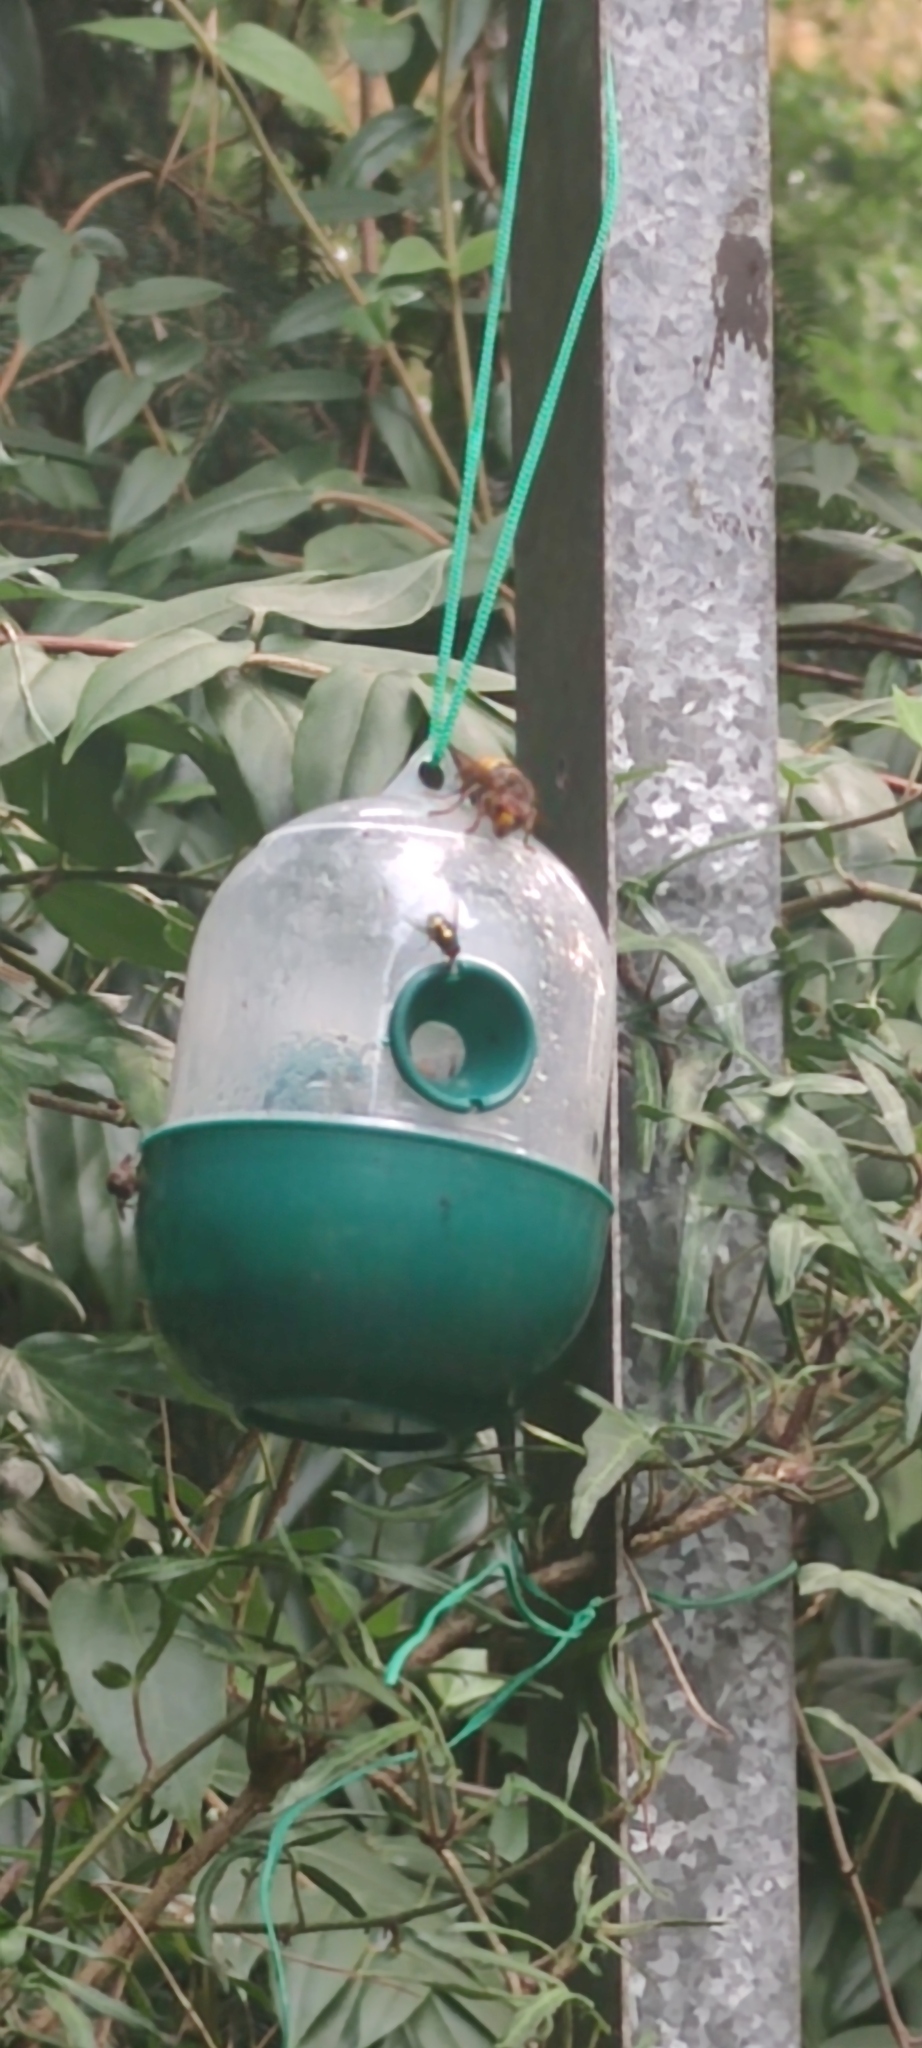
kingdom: Animalia
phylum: Arthropoda
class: Insecta
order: Hymenoptera
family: Vespidae
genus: Vespa
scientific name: Vespa crabro
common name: Hornet
